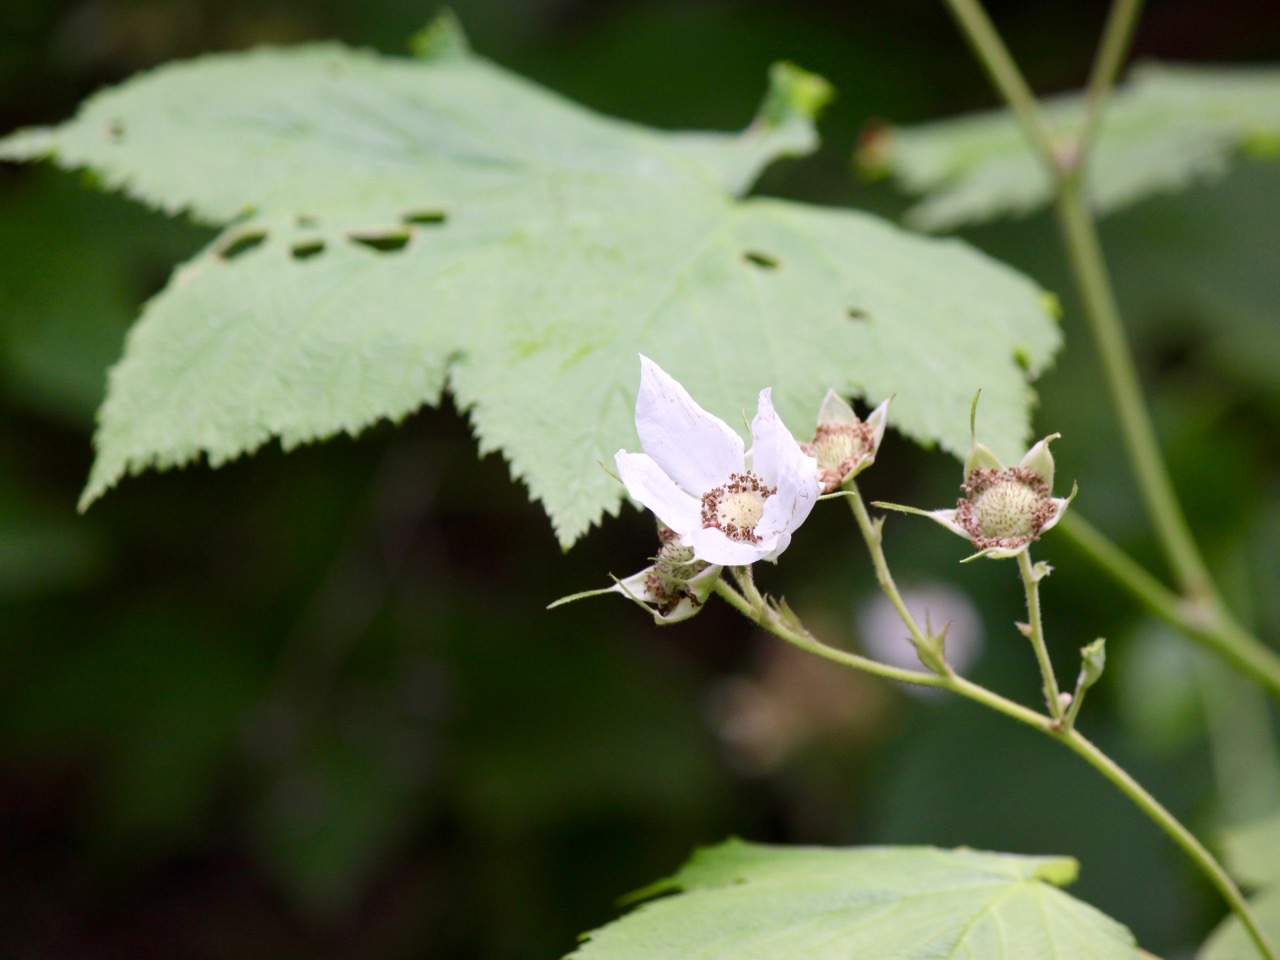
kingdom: Plantae
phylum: Tracheophyta
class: Magnoliopsida
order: Rosales
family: Rosaceae
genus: Rubus
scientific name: Rubus parviflorus
